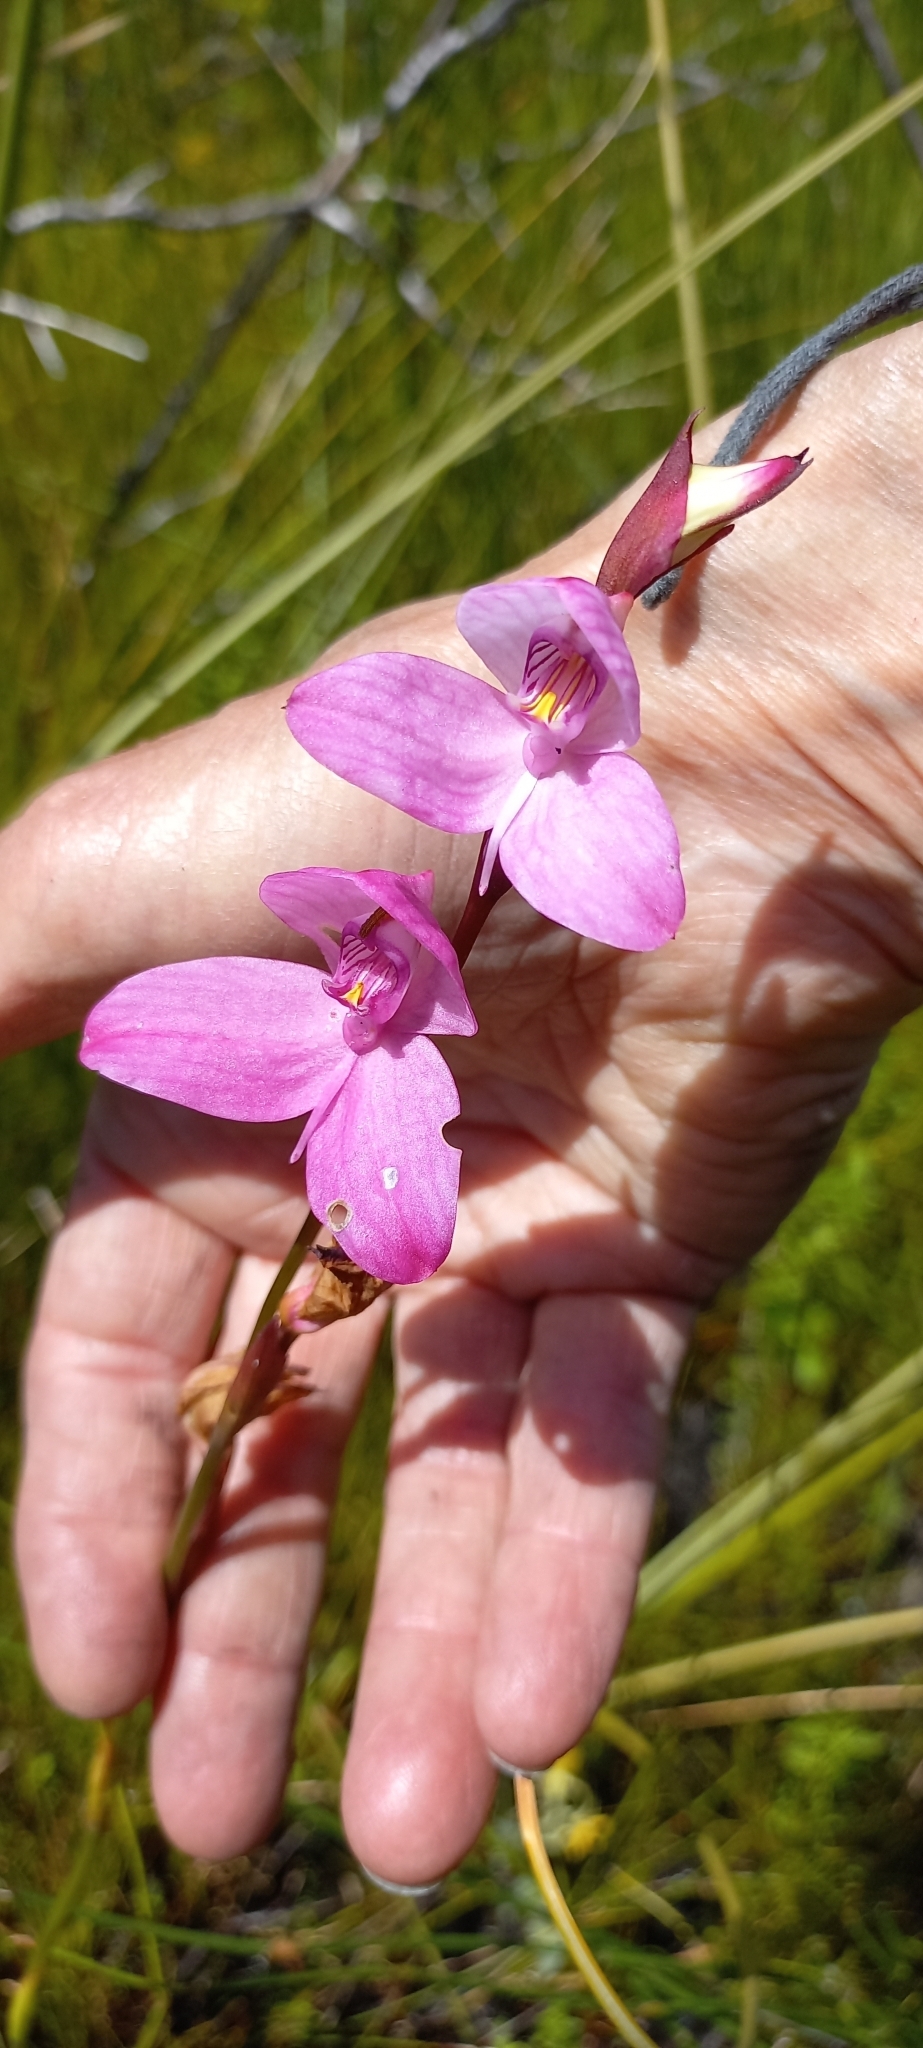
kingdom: Plantae
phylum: Tracheophyta
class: Liliopsida
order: Asparagales
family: Orchidaceae
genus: Disa
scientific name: Disa racemosa
